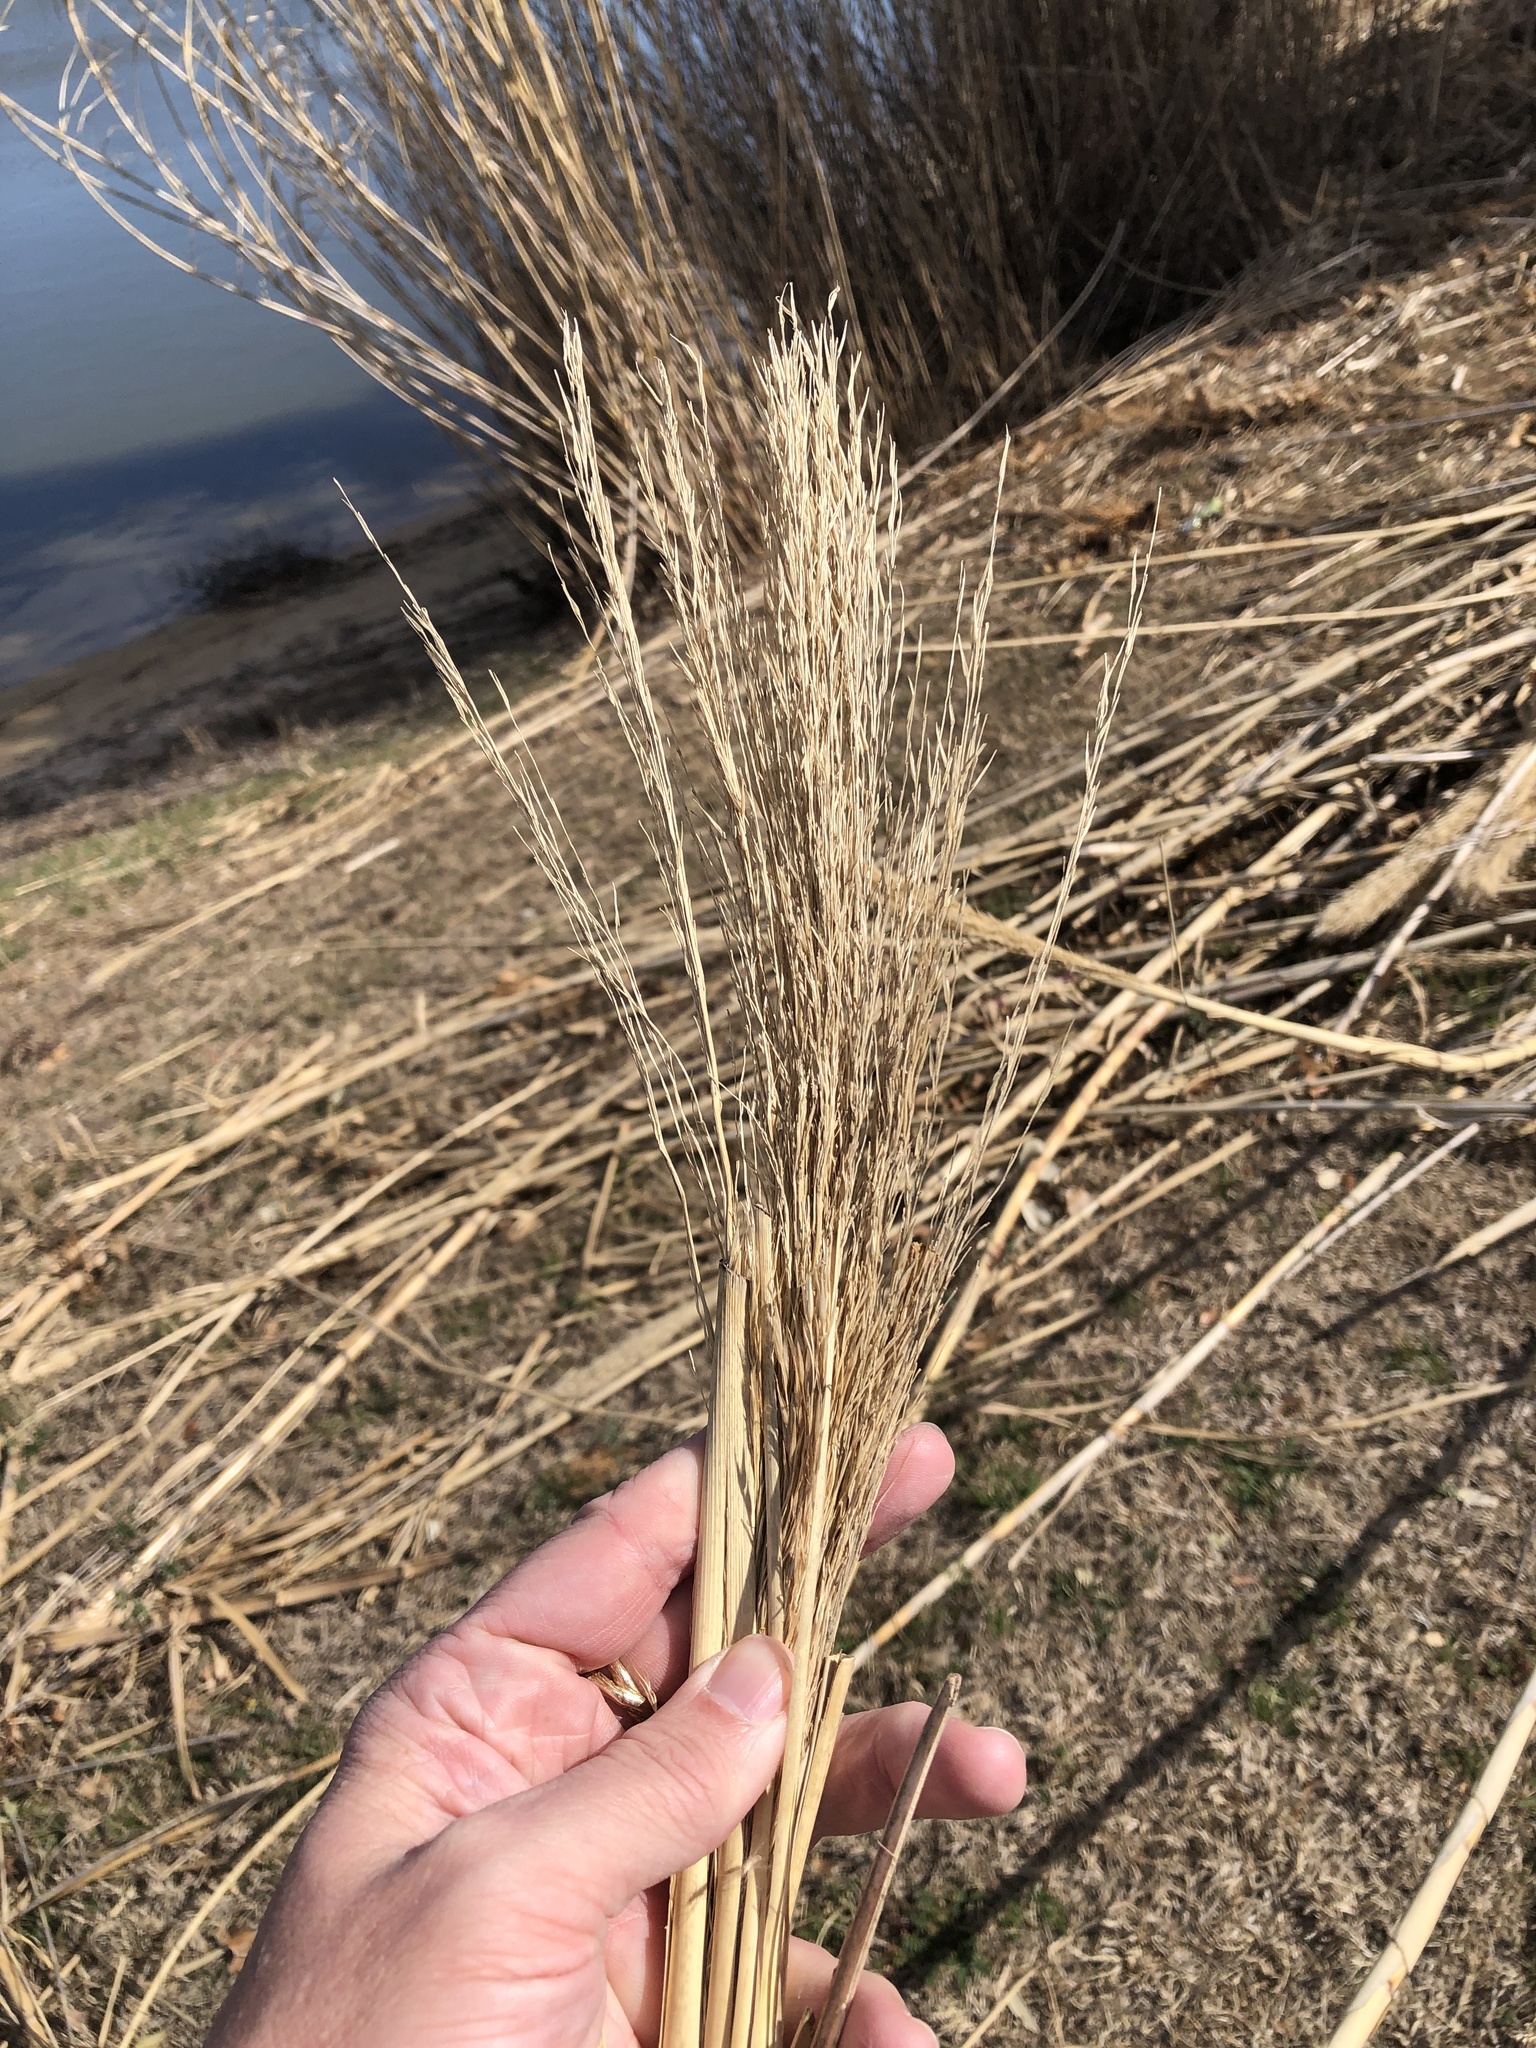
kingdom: Plantae
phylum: Tracheophyta
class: Liliopsida
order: Poales
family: Poaceae
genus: Arundo
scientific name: Arundo donax
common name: Giant reed
